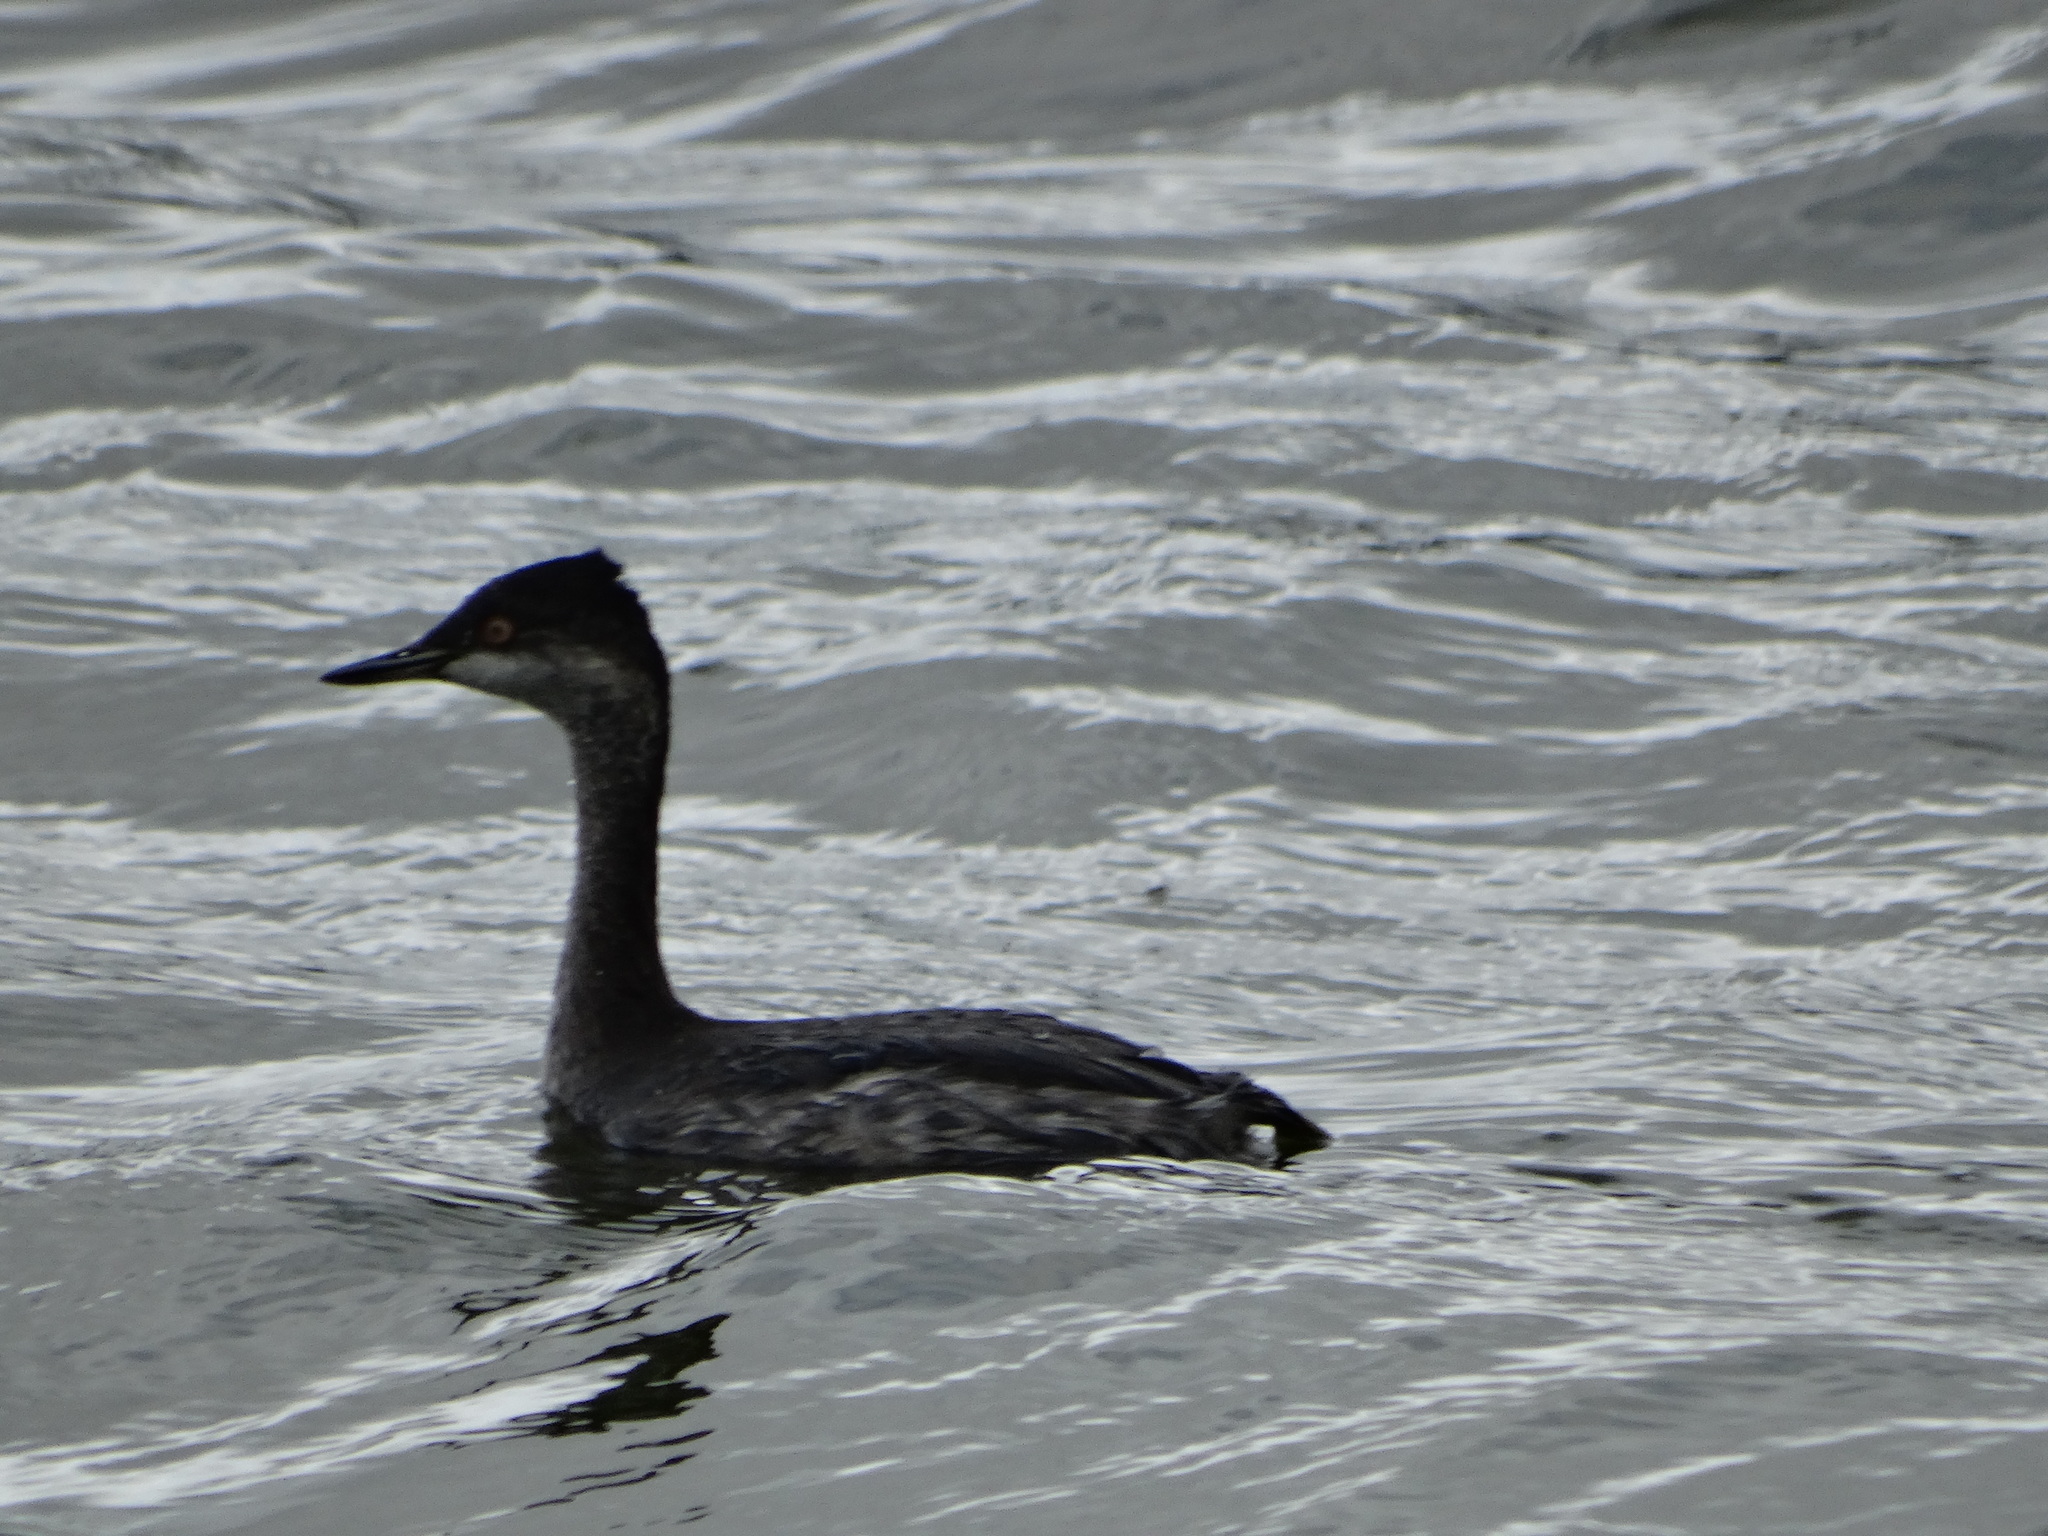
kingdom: Animalia
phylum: Chordata
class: Aves
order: Podicipediformes
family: Podicipedidae
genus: Podiceps
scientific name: Podiceps nigricollis
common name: Black-necked grebe
